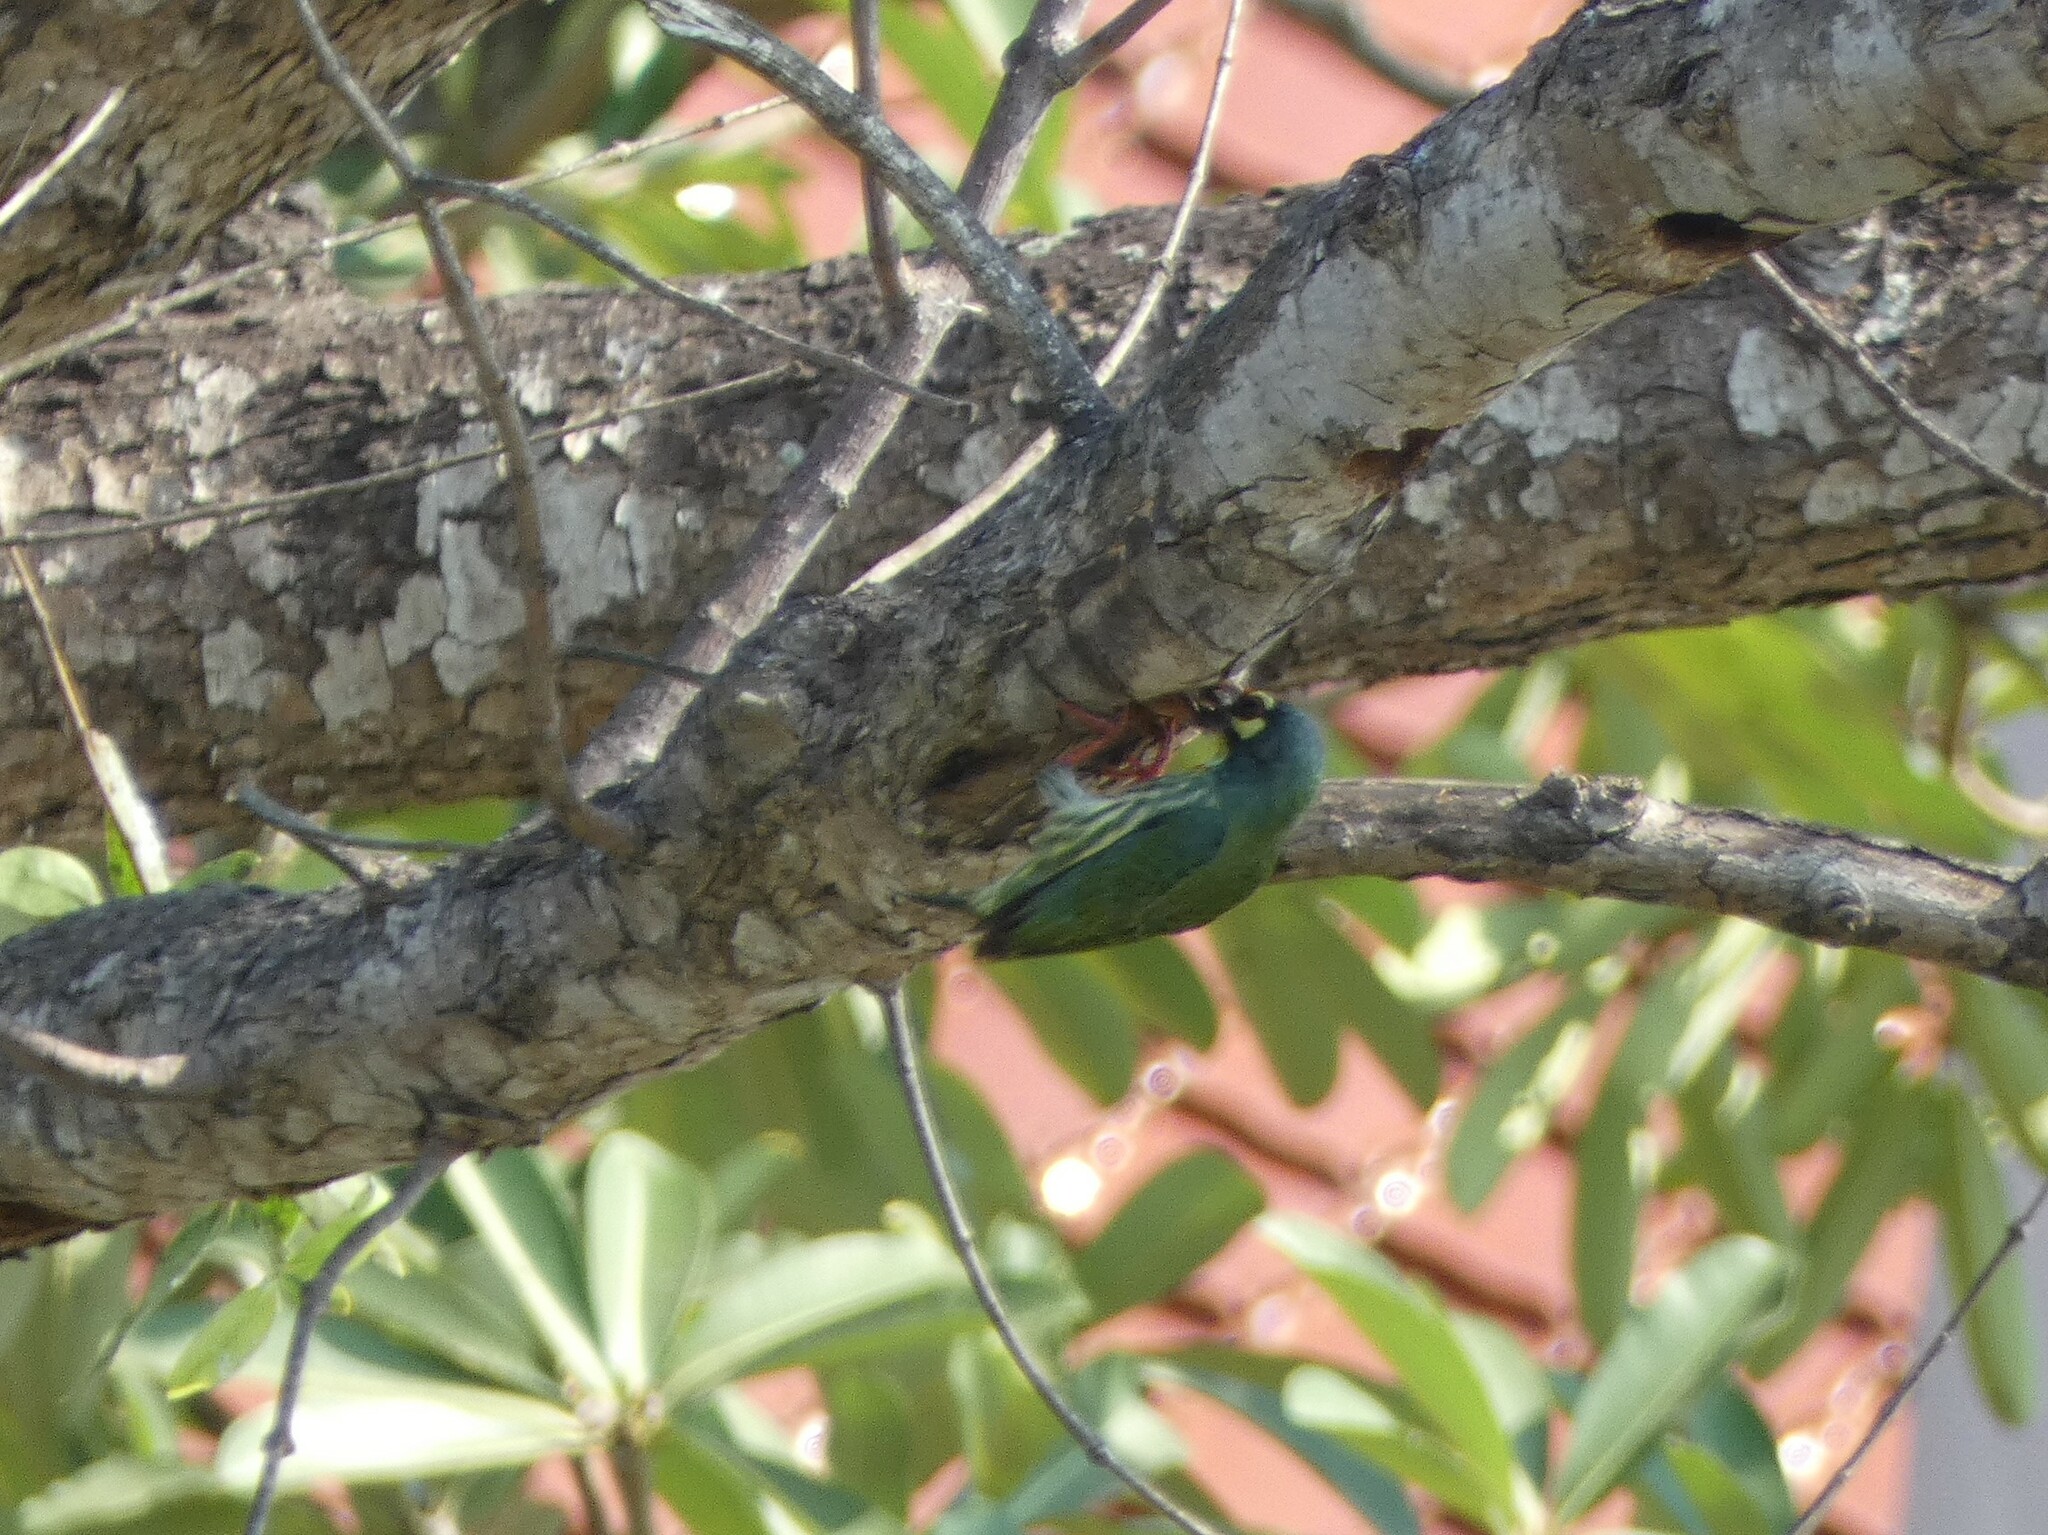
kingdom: Animalia
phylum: Chordata
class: Aves
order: Piciformes
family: Megalaimidae
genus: Psilopogon
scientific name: Psilopogon haemacephalus
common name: Coppersmith barbet
